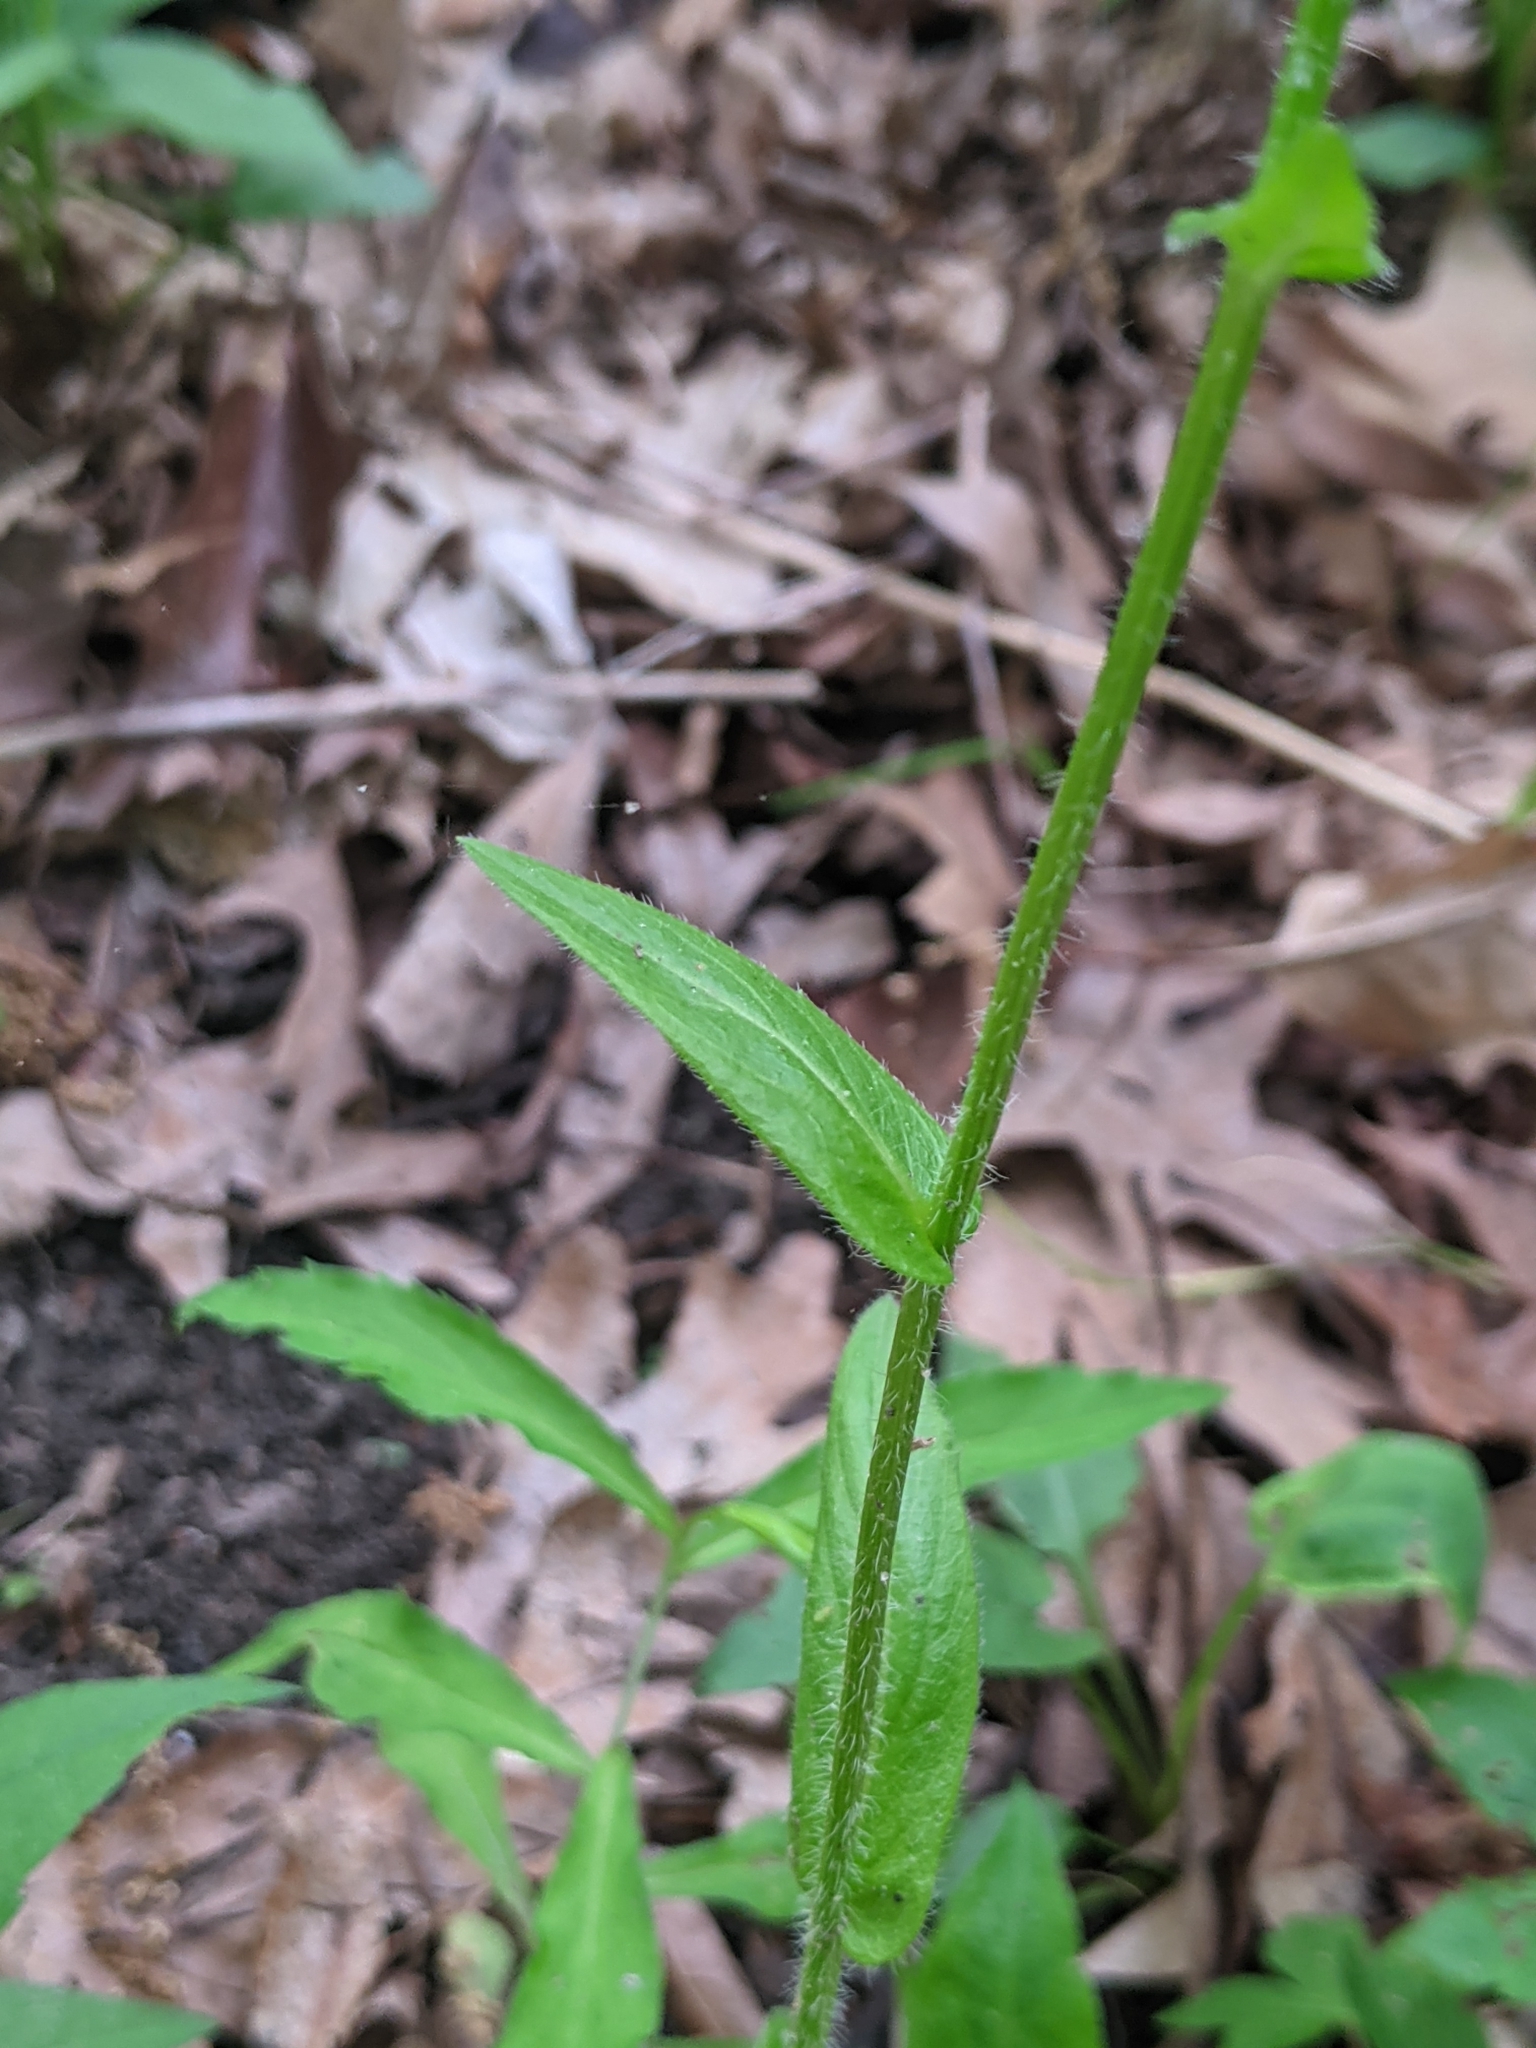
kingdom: Plantae
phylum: Tracheophyta
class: Magnoliopsida
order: Asterales
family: Asteraceae
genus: Erigeron
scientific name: Erigeron philadelphicus
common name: Robin's-plantain
